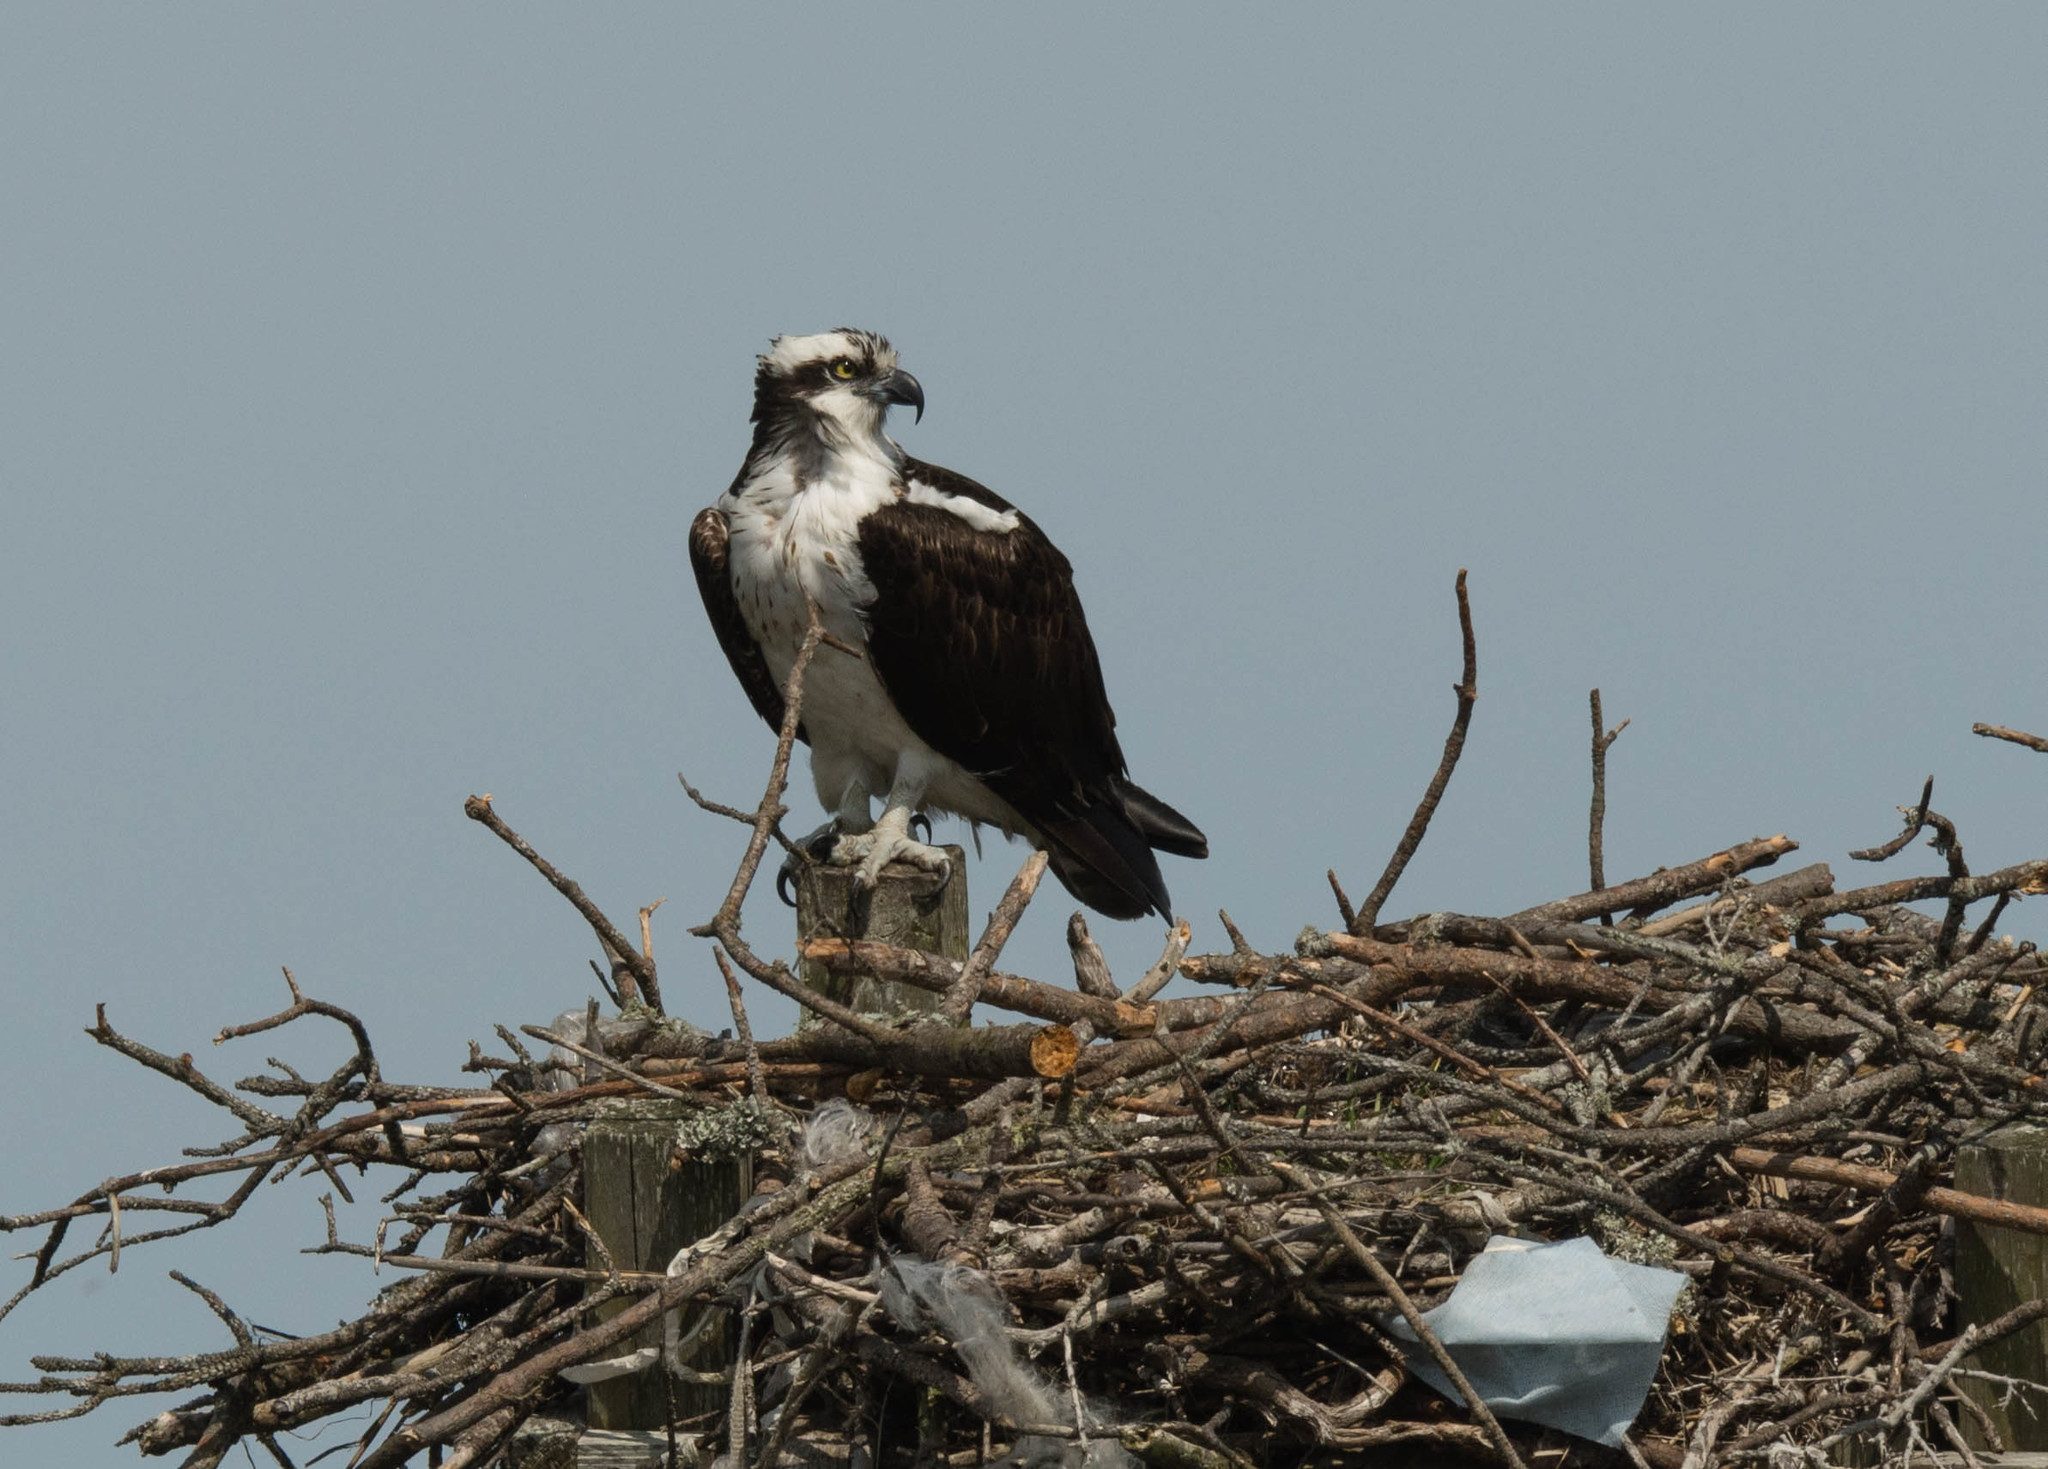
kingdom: Animalia
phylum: Chordata
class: Aves
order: Accipitriformes
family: Pandionidae
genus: Pandion
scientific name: Pandion haliaetus
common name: Osprey
